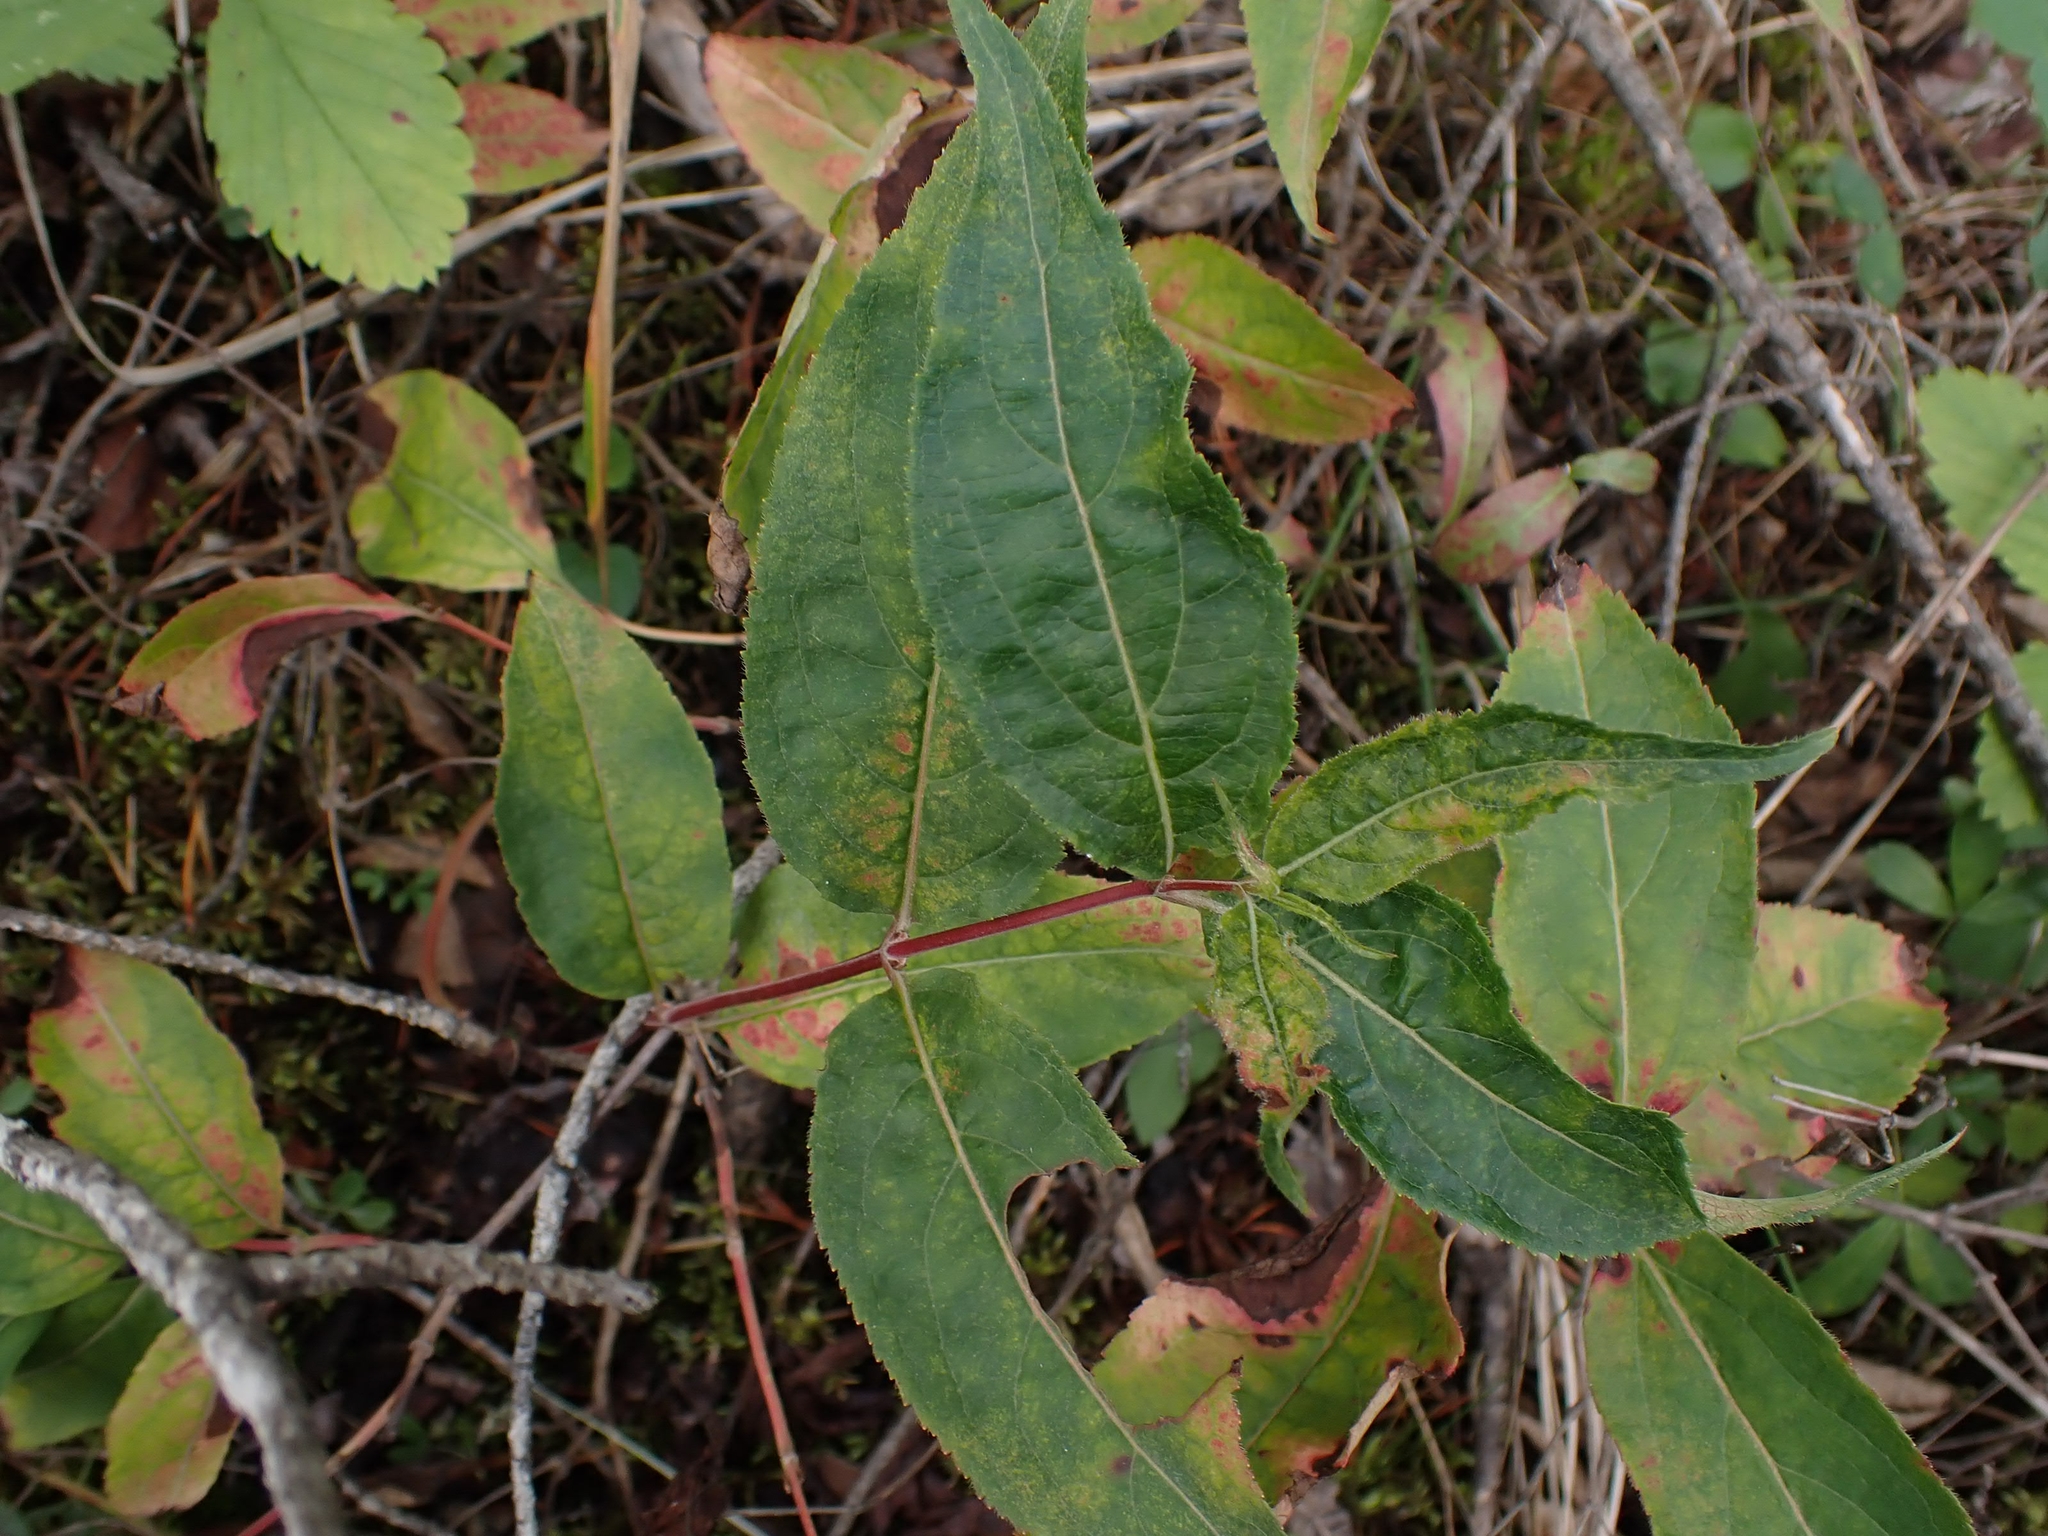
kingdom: Plantae
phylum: Tracheophyta
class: Magnoliopsida
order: Dipsacales
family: Caprifoliaceae
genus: Diervilla
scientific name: Diervilla lonicera
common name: Bush-honeysuckle
